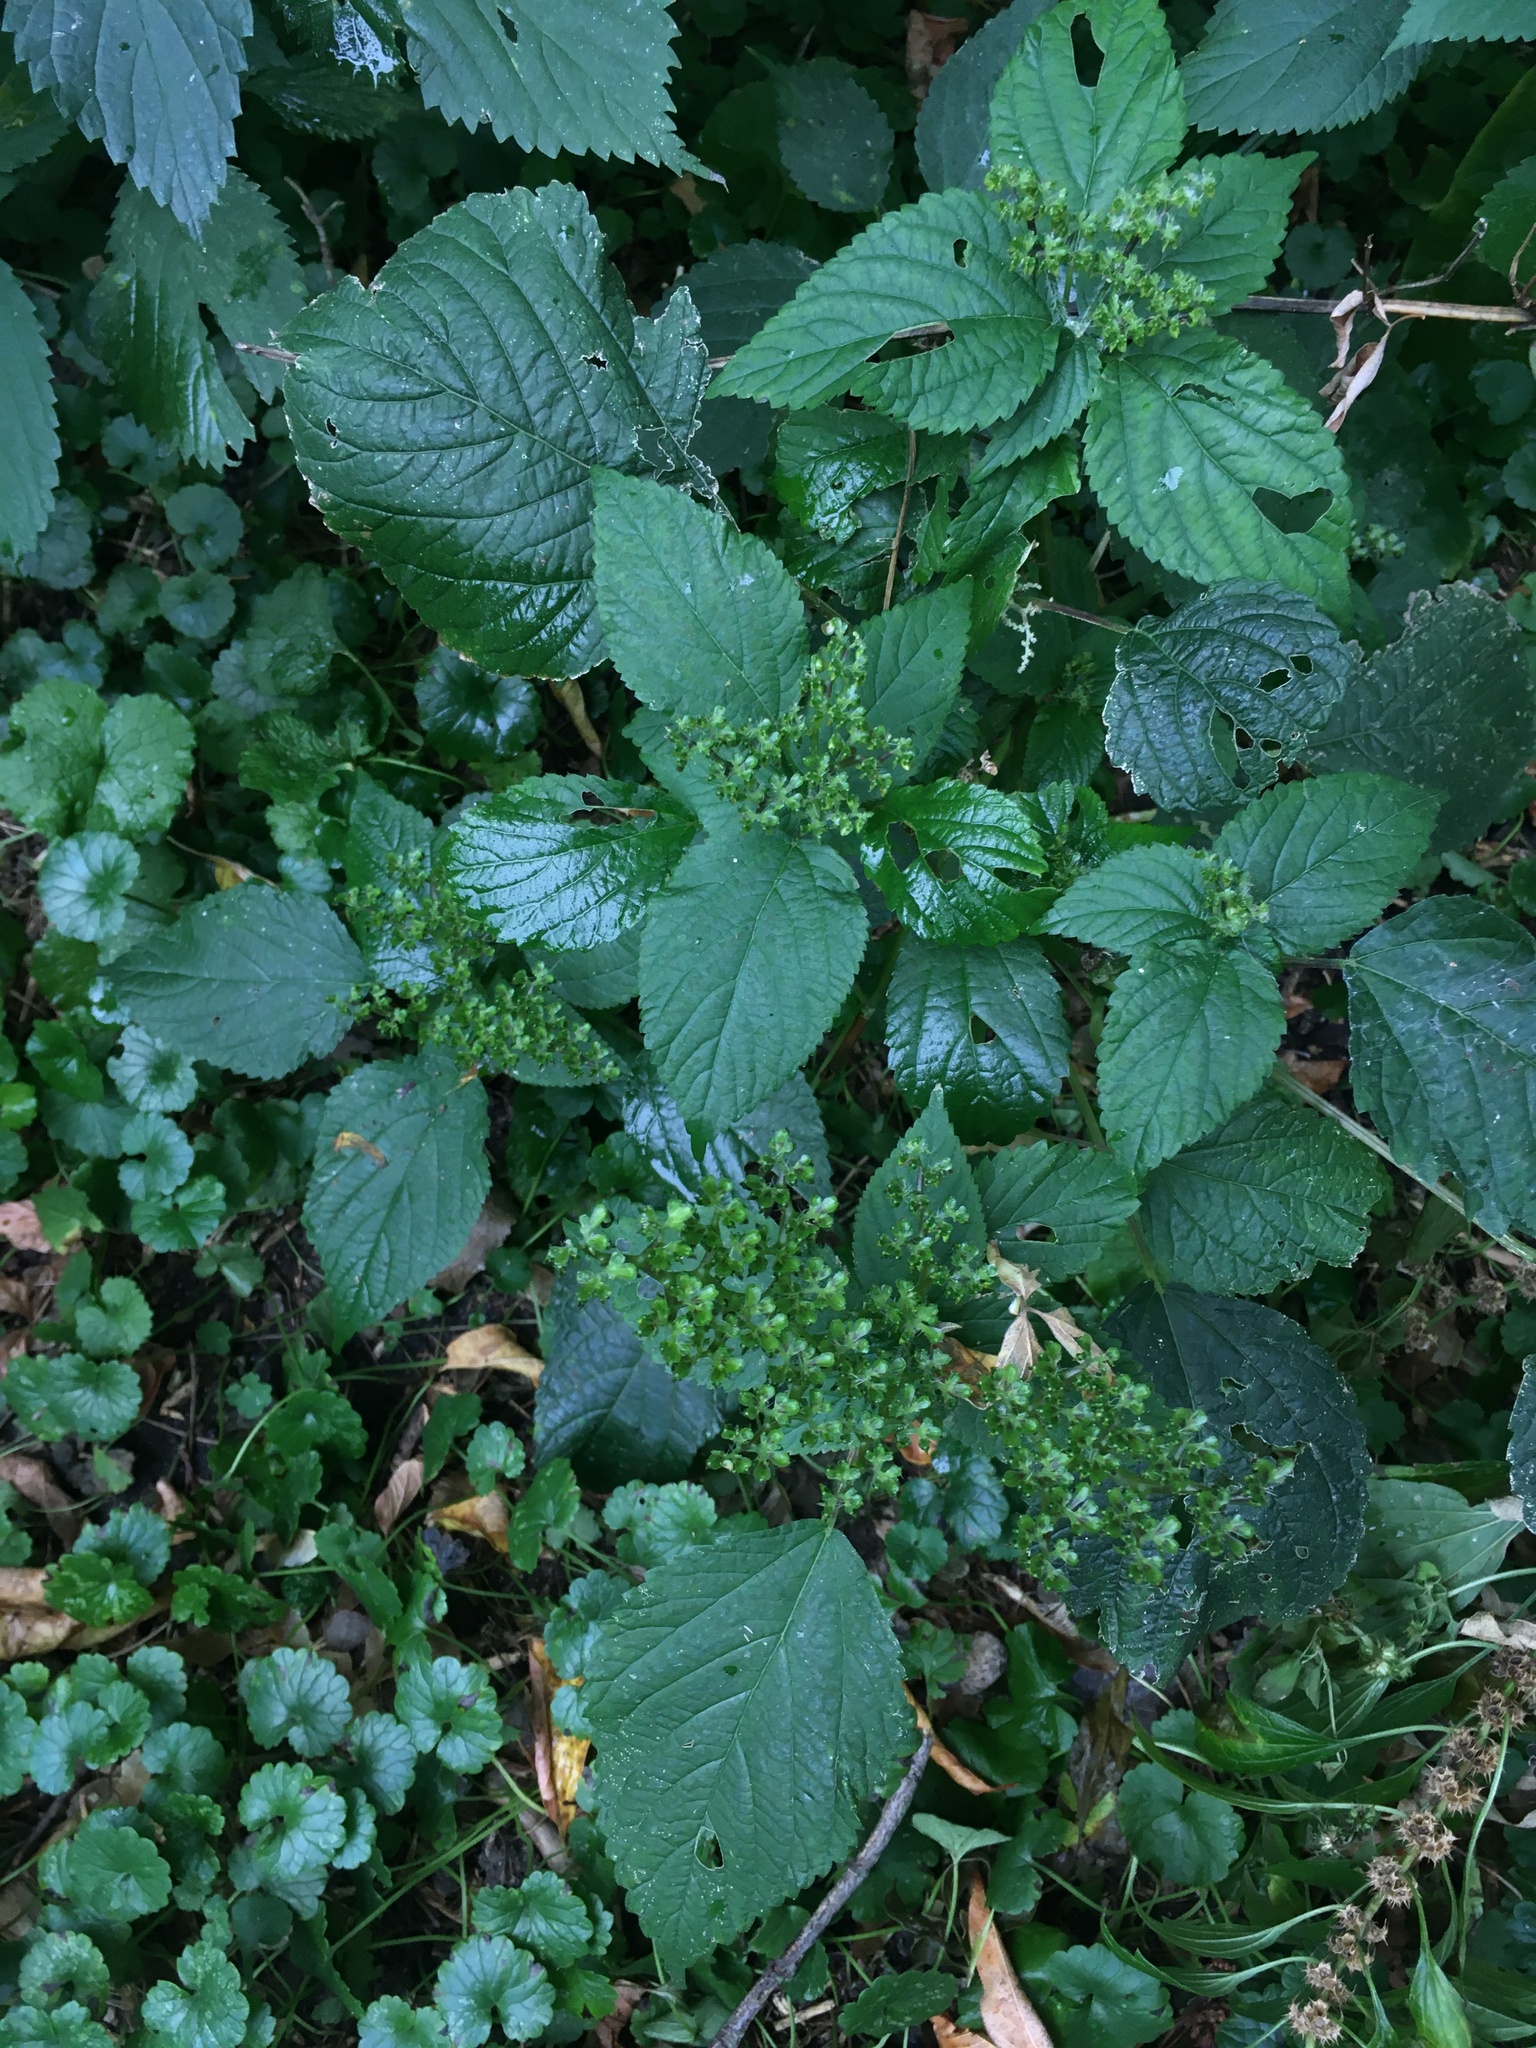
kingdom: Plantae
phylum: Tracheophyta
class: Magnoliopsida
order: Rosales
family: Urticaceae
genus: Laportea
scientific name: Laportea canadensis
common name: Canada nettle
